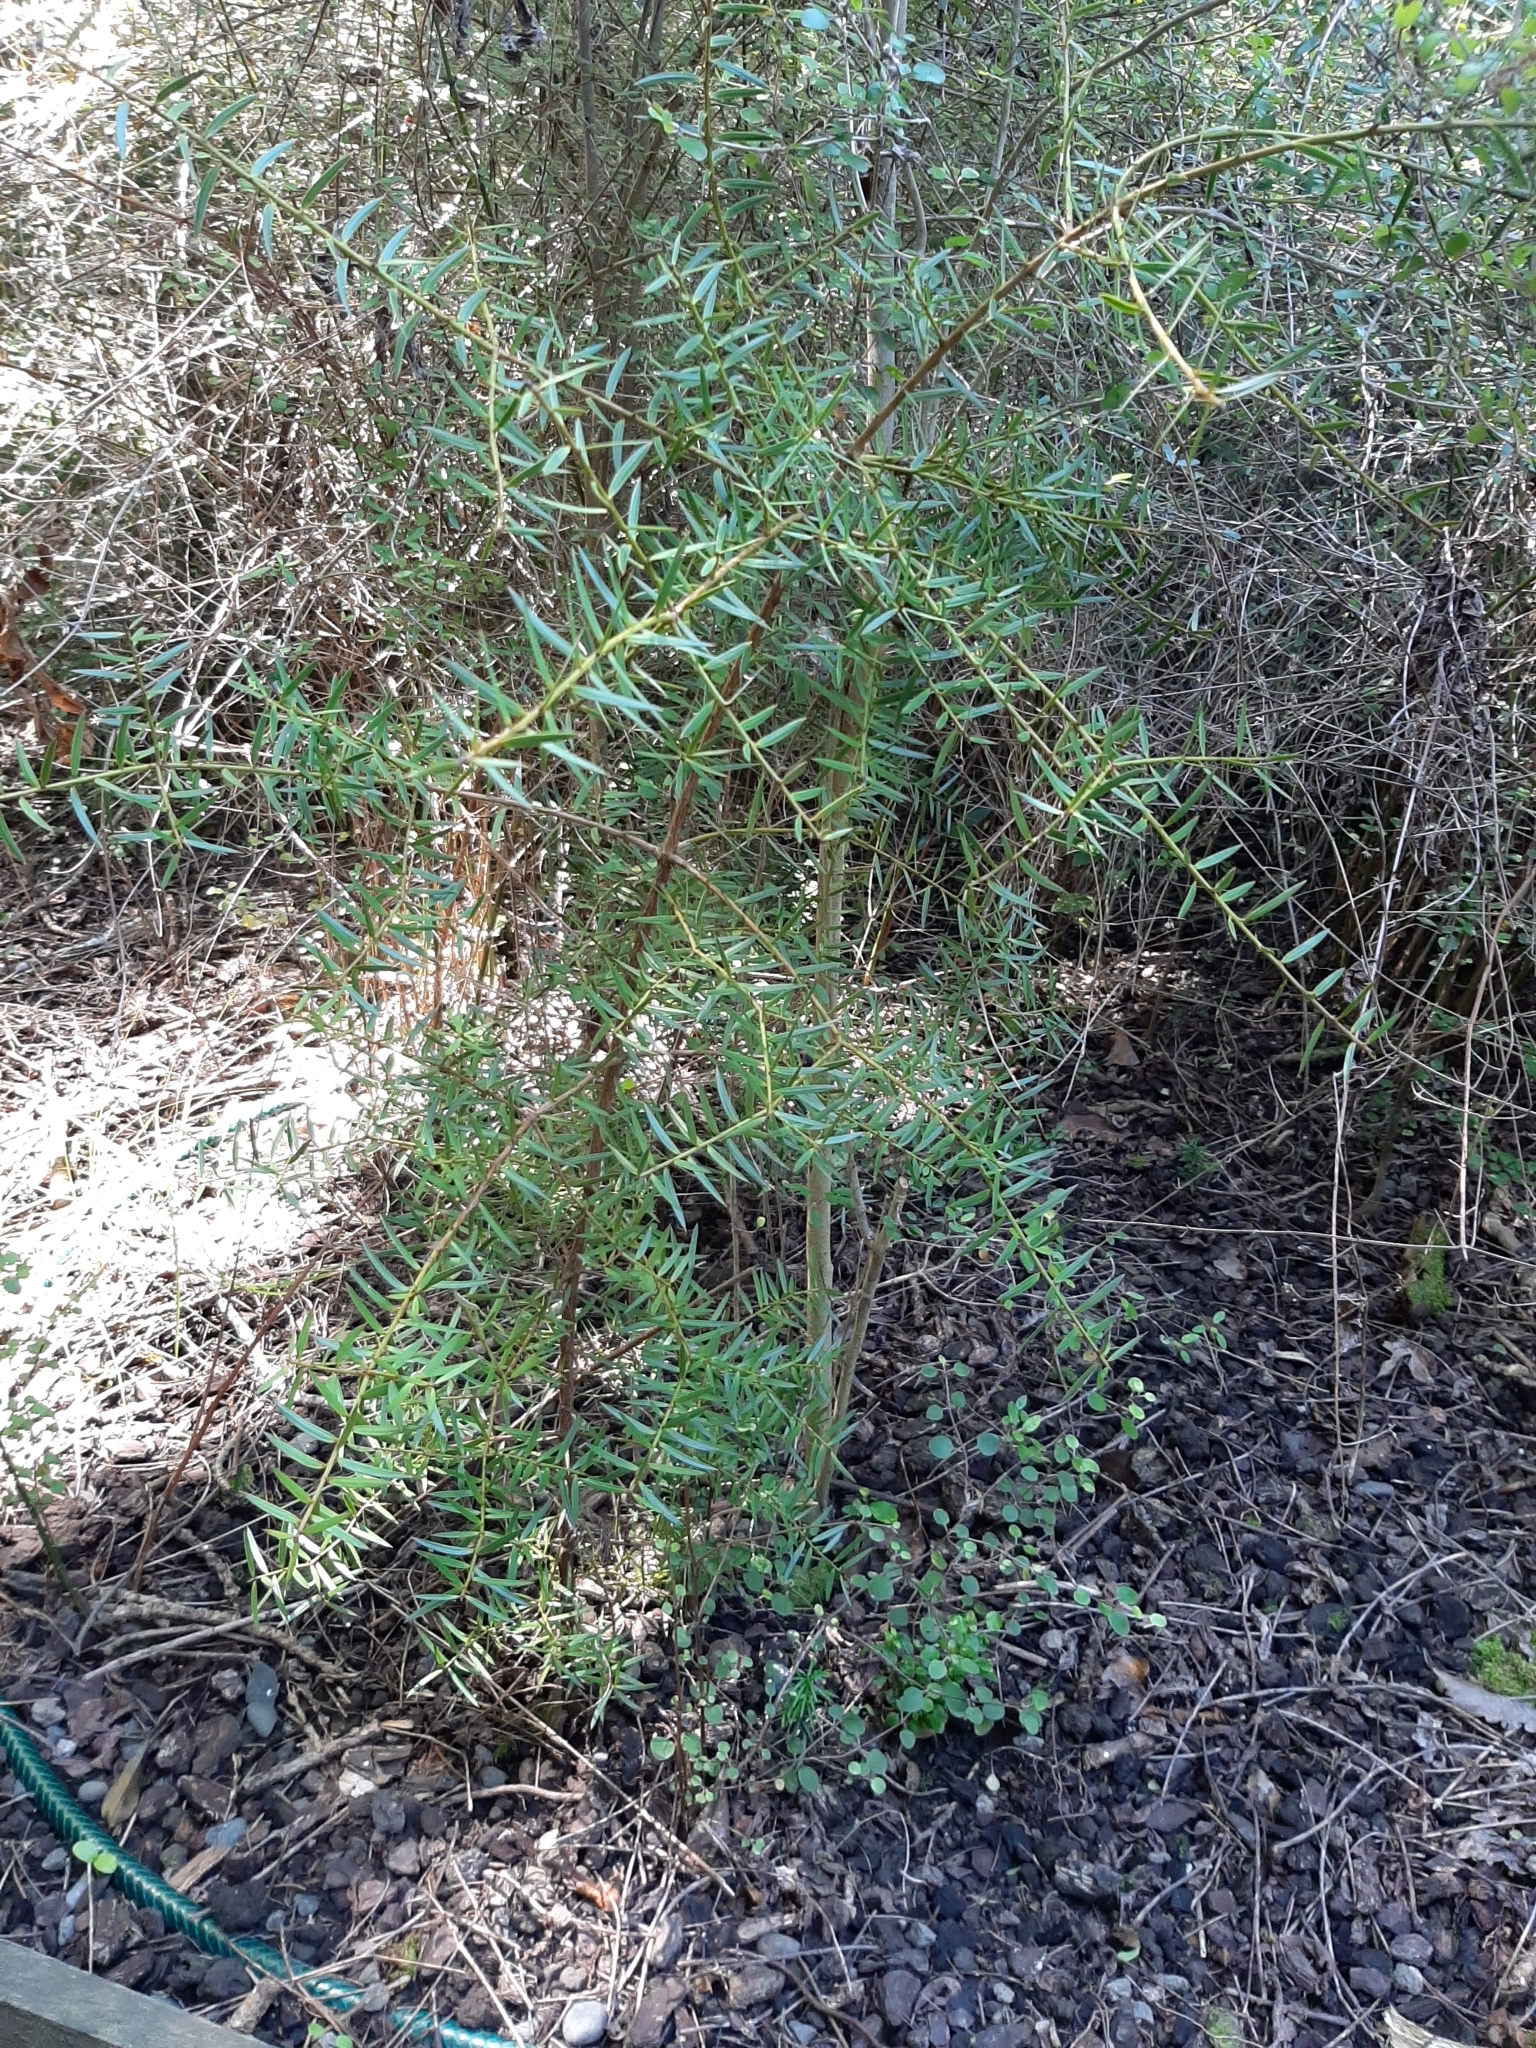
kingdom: Plantae
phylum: Tracheophyta
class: Pinopsida
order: Pinales
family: Podocarpaceae
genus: Podocarpus
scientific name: Podocarpus totara
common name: Totara
